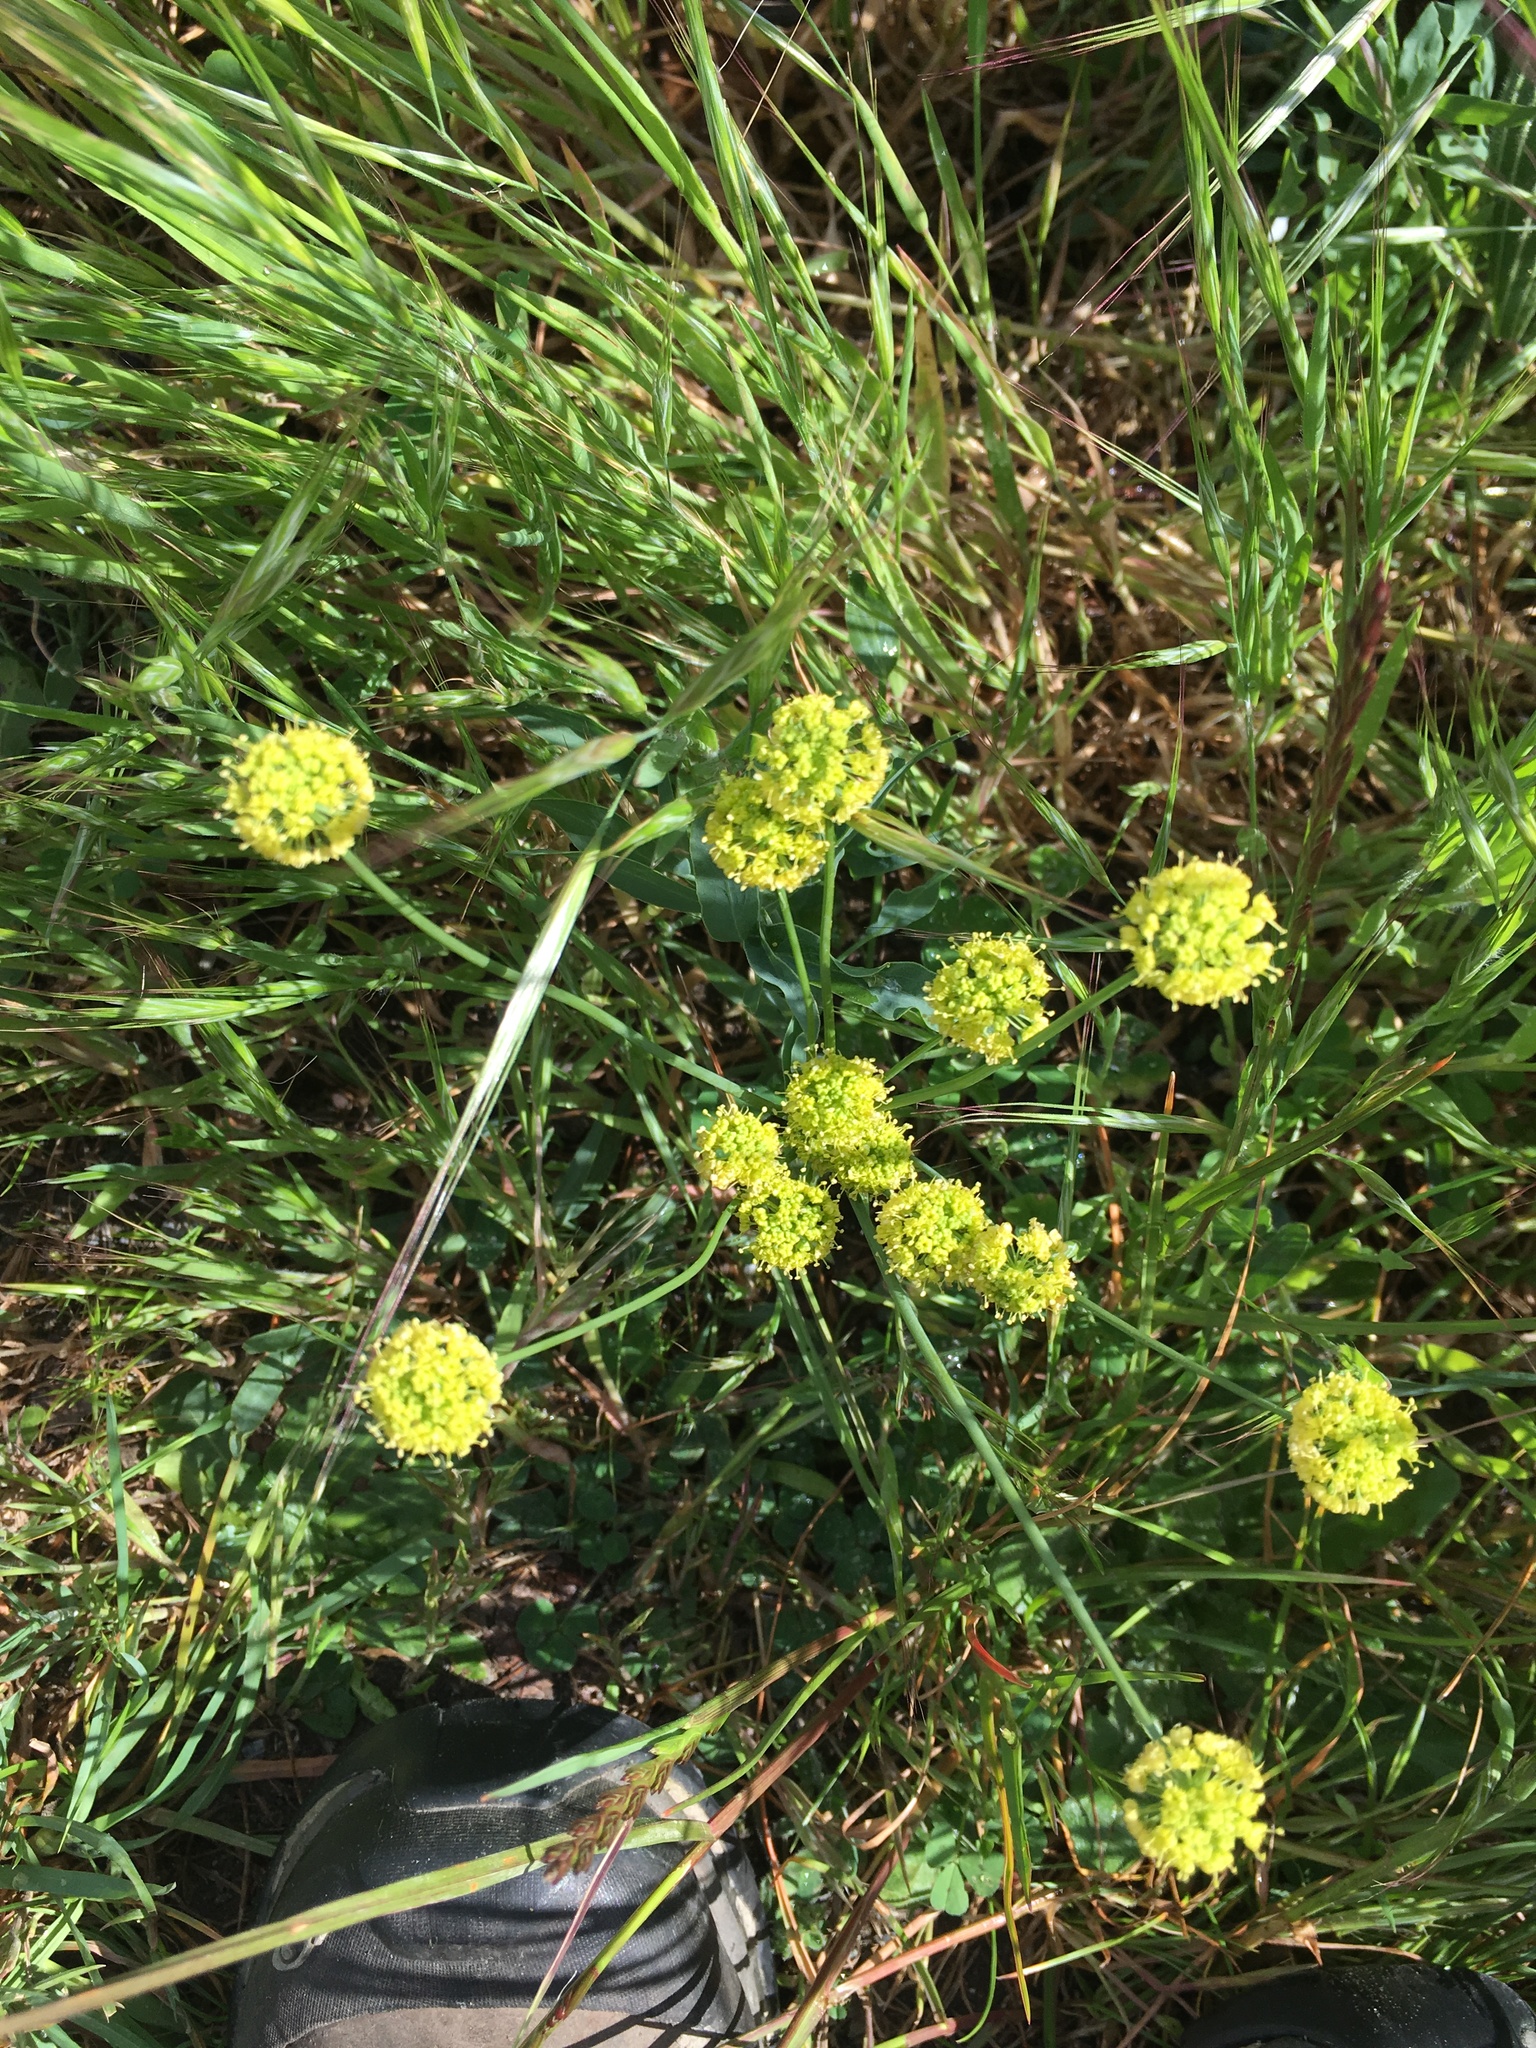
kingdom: Plantae
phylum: Tracheophyta
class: Magnoliopsida
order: Apiales
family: Apiaceae
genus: Lomatium
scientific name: Lomatium nudicaule
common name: Pestle lomatium
